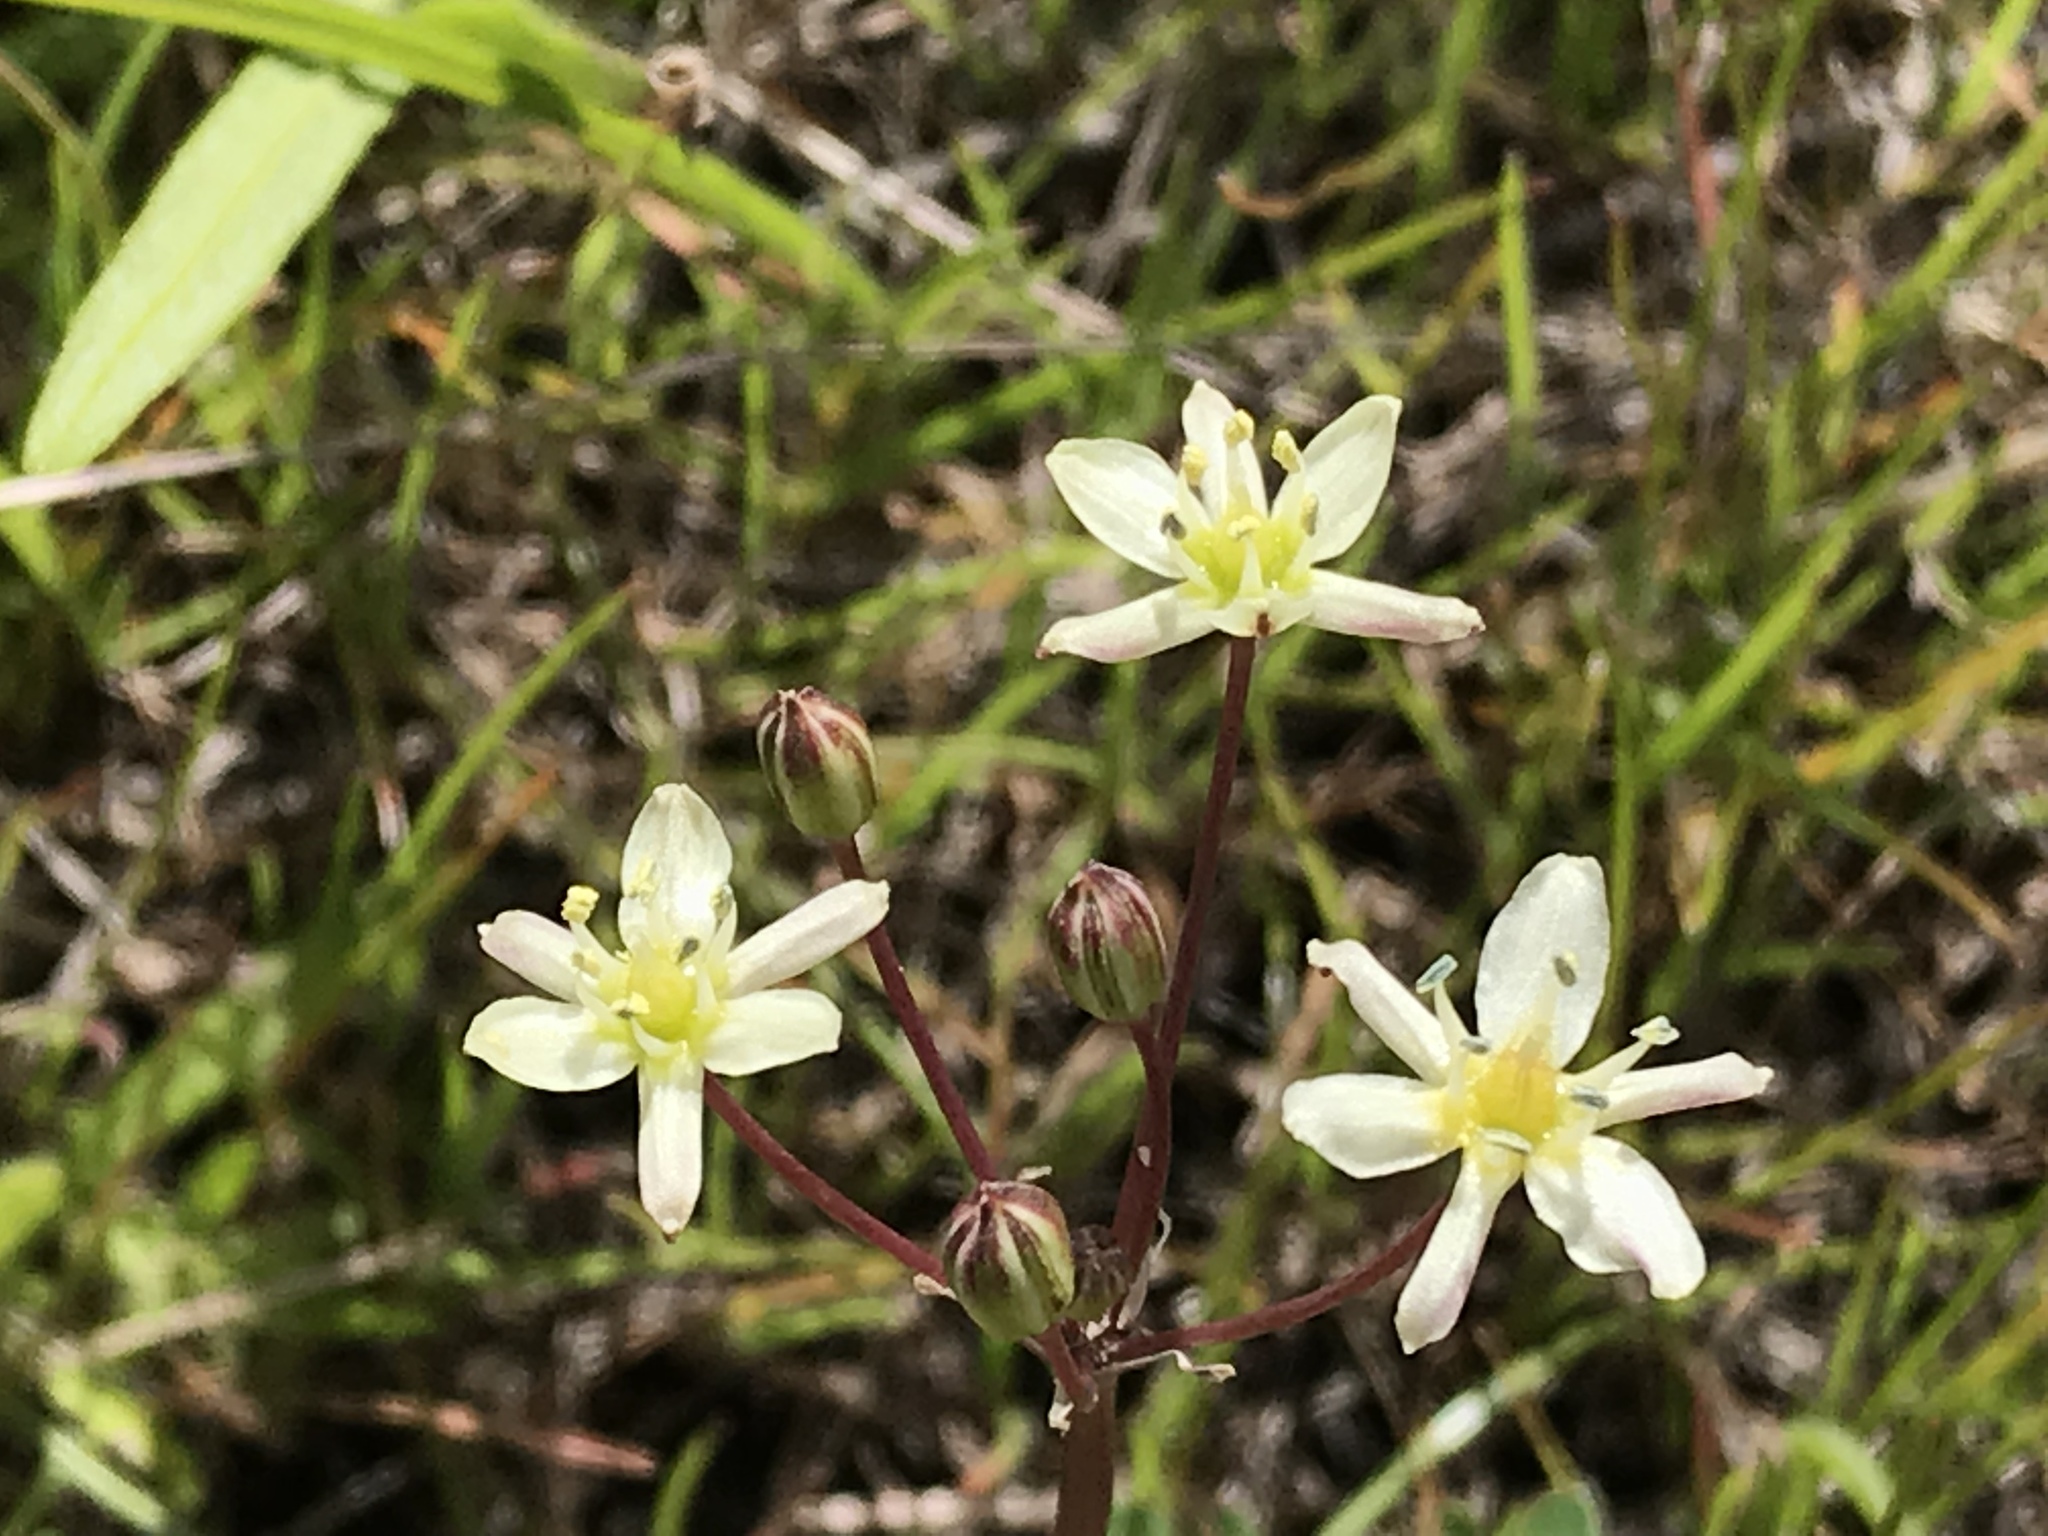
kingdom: Plantae
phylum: Tracheophyta
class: Liliopsida
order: Asparagales
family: Asparagaceae
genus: Muilla
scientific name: Muilla maritima
